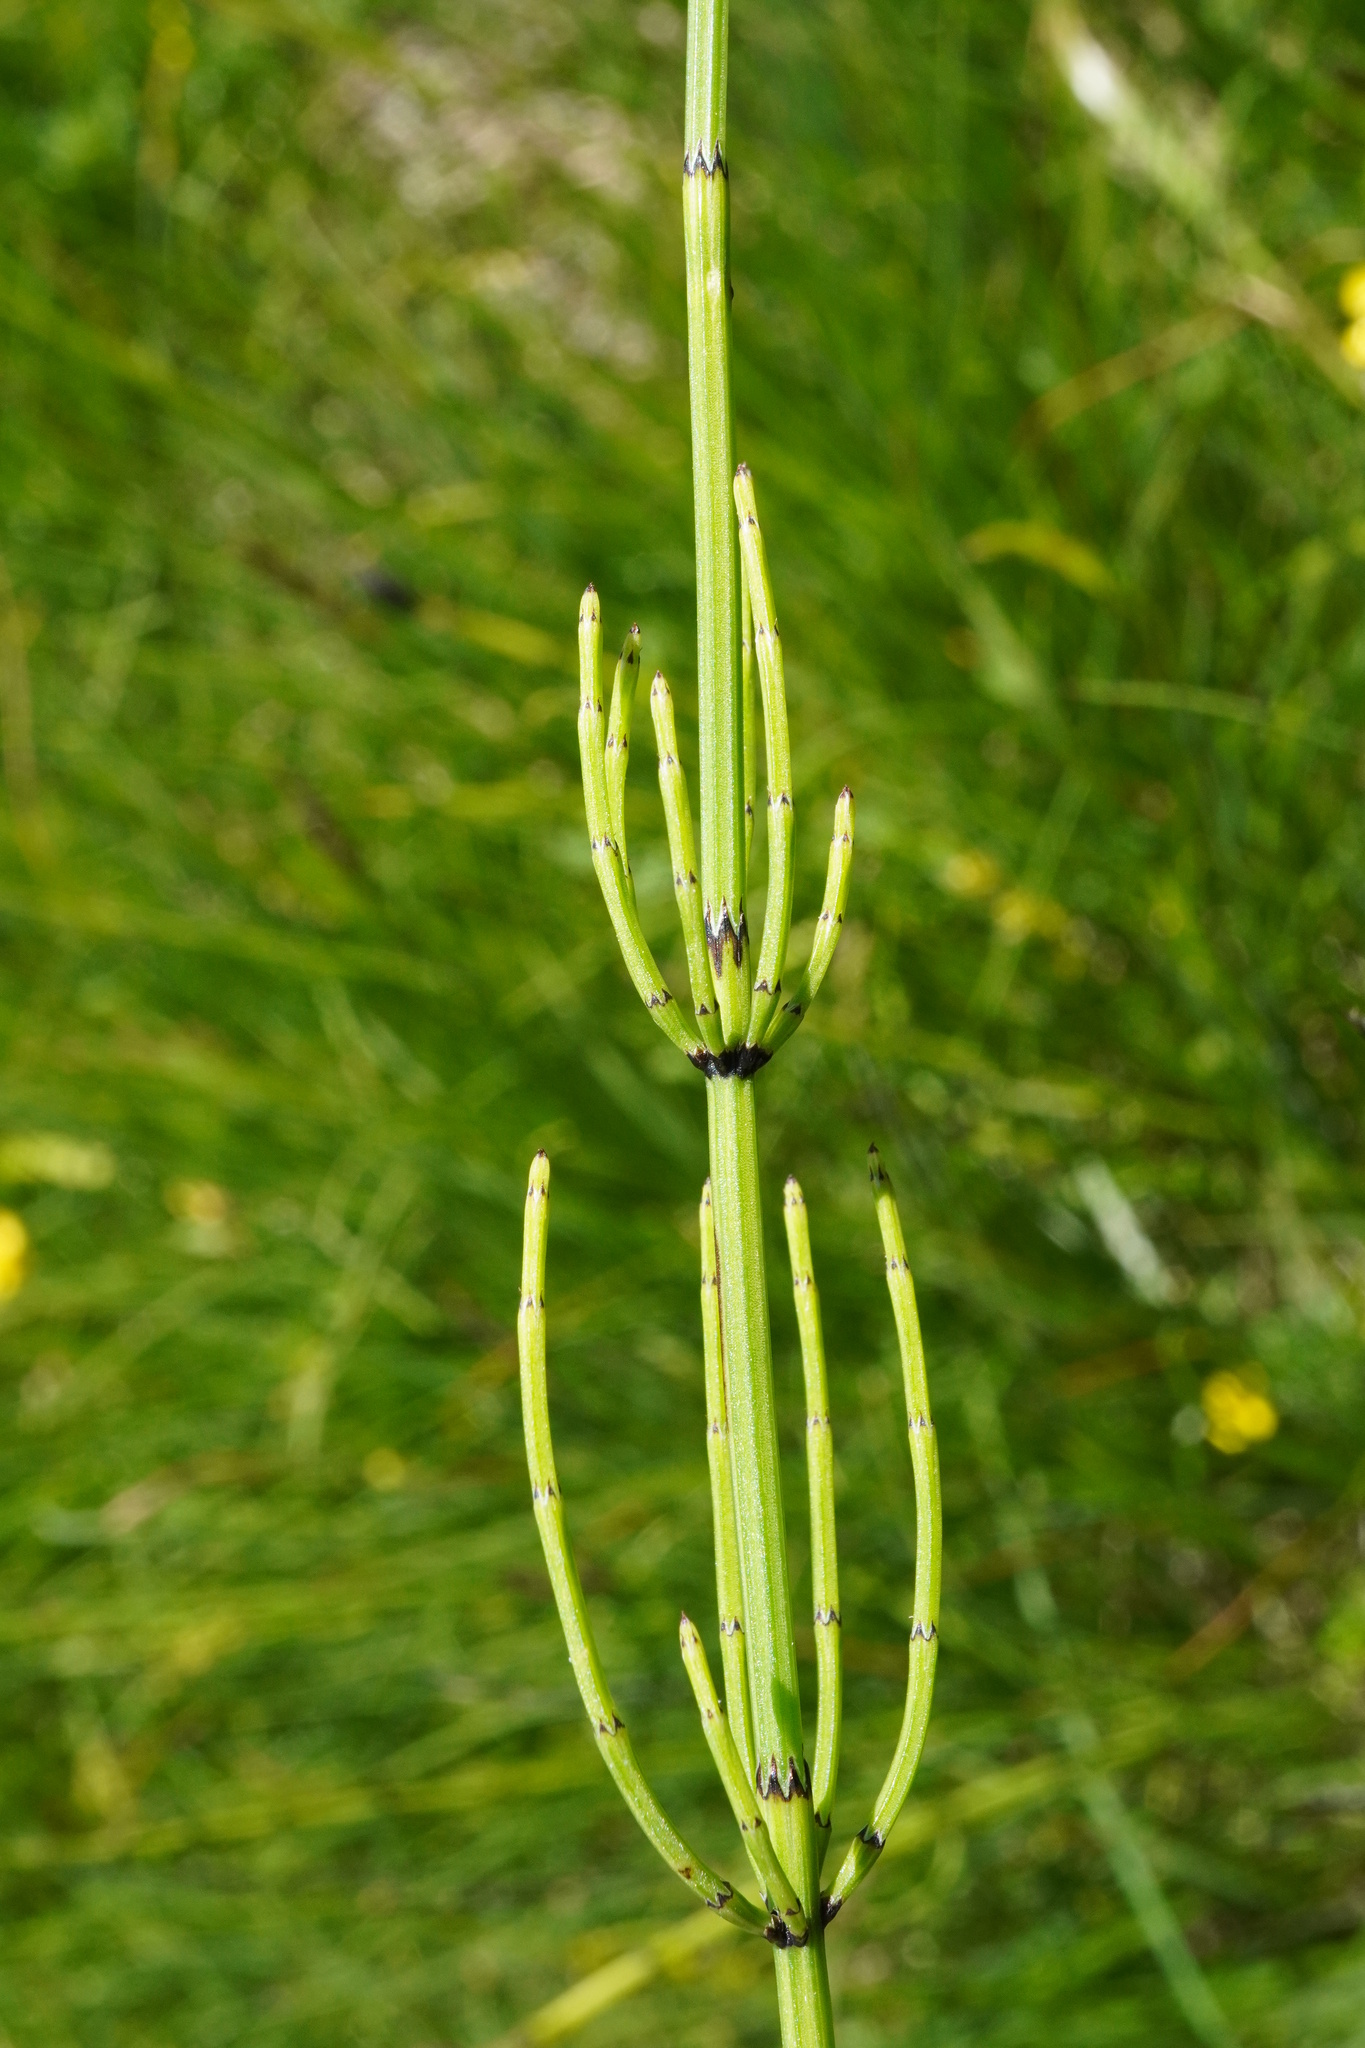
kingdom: Plantae
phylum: Tracheophyta
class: Polypodiopsida
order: Equisetales
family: Equisetaceae
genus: Equisetum
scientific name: Equisetum palustre
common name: Marsh horsetail
